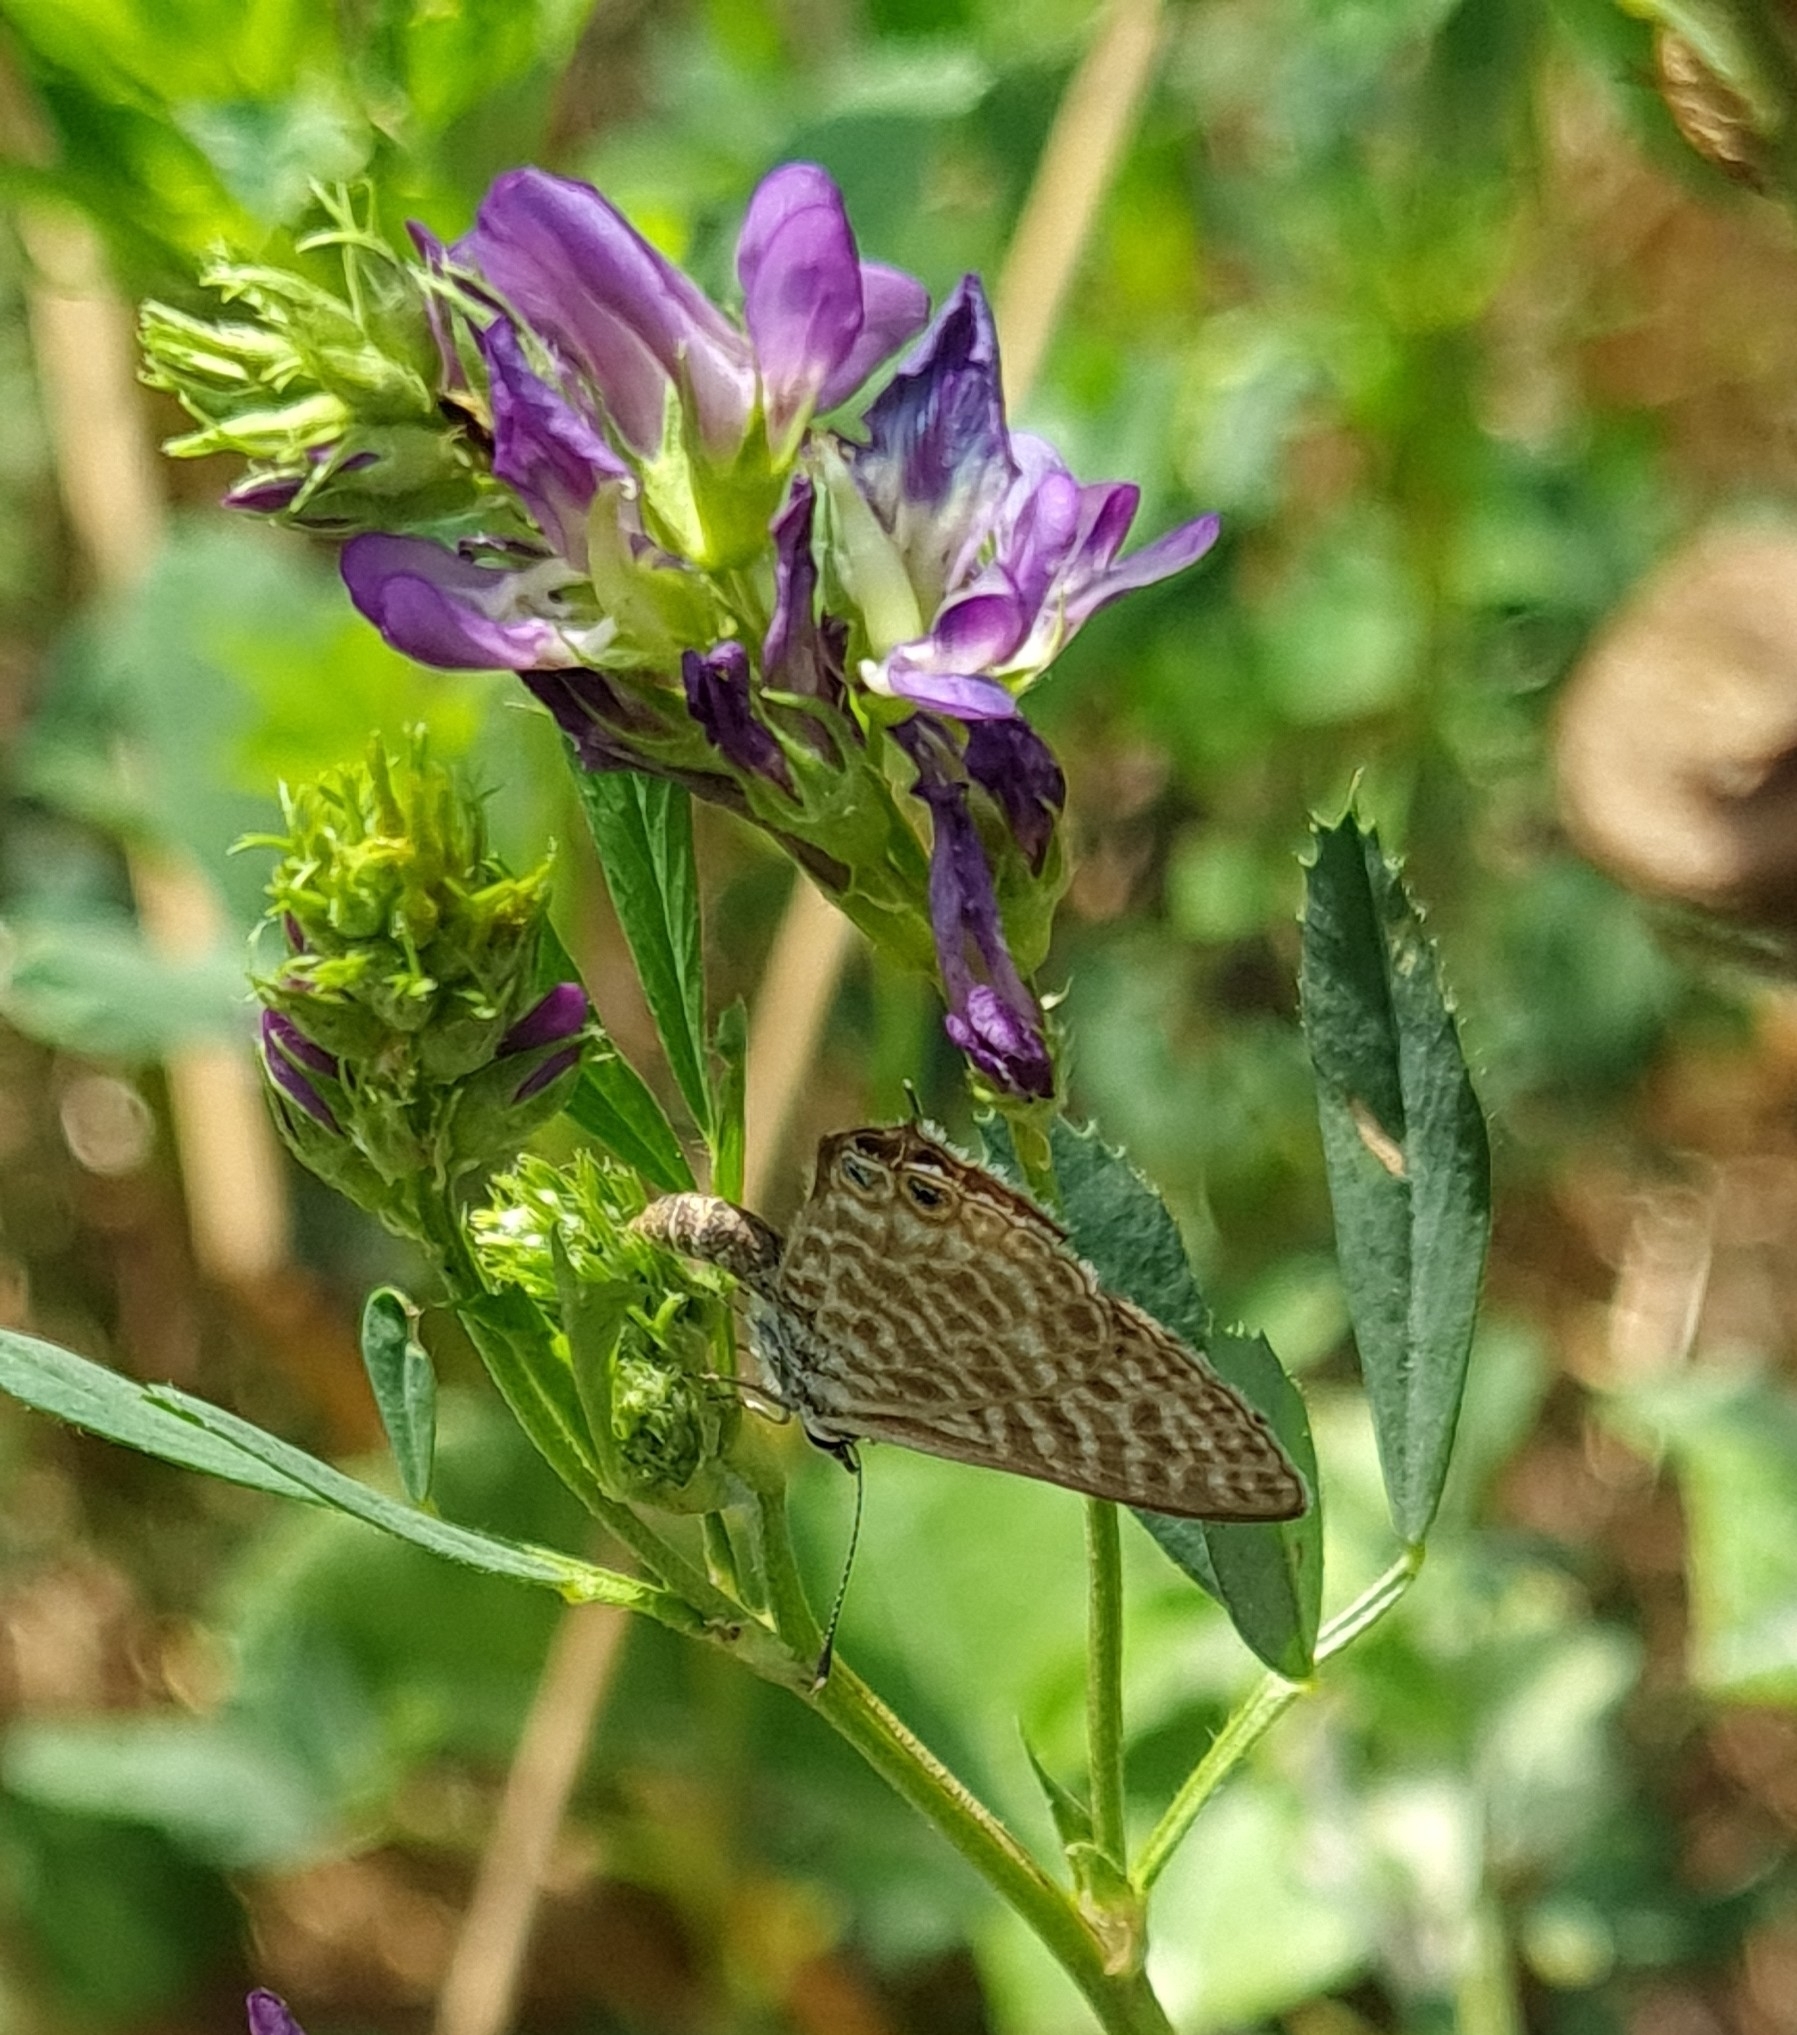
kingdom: Animalia
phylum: Arthropoda
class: Insecta
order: Lepidoptera
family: Lycaenidae
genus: Leptotes
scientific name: Leptotes pirithous
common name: Lang's short-tailed blue
